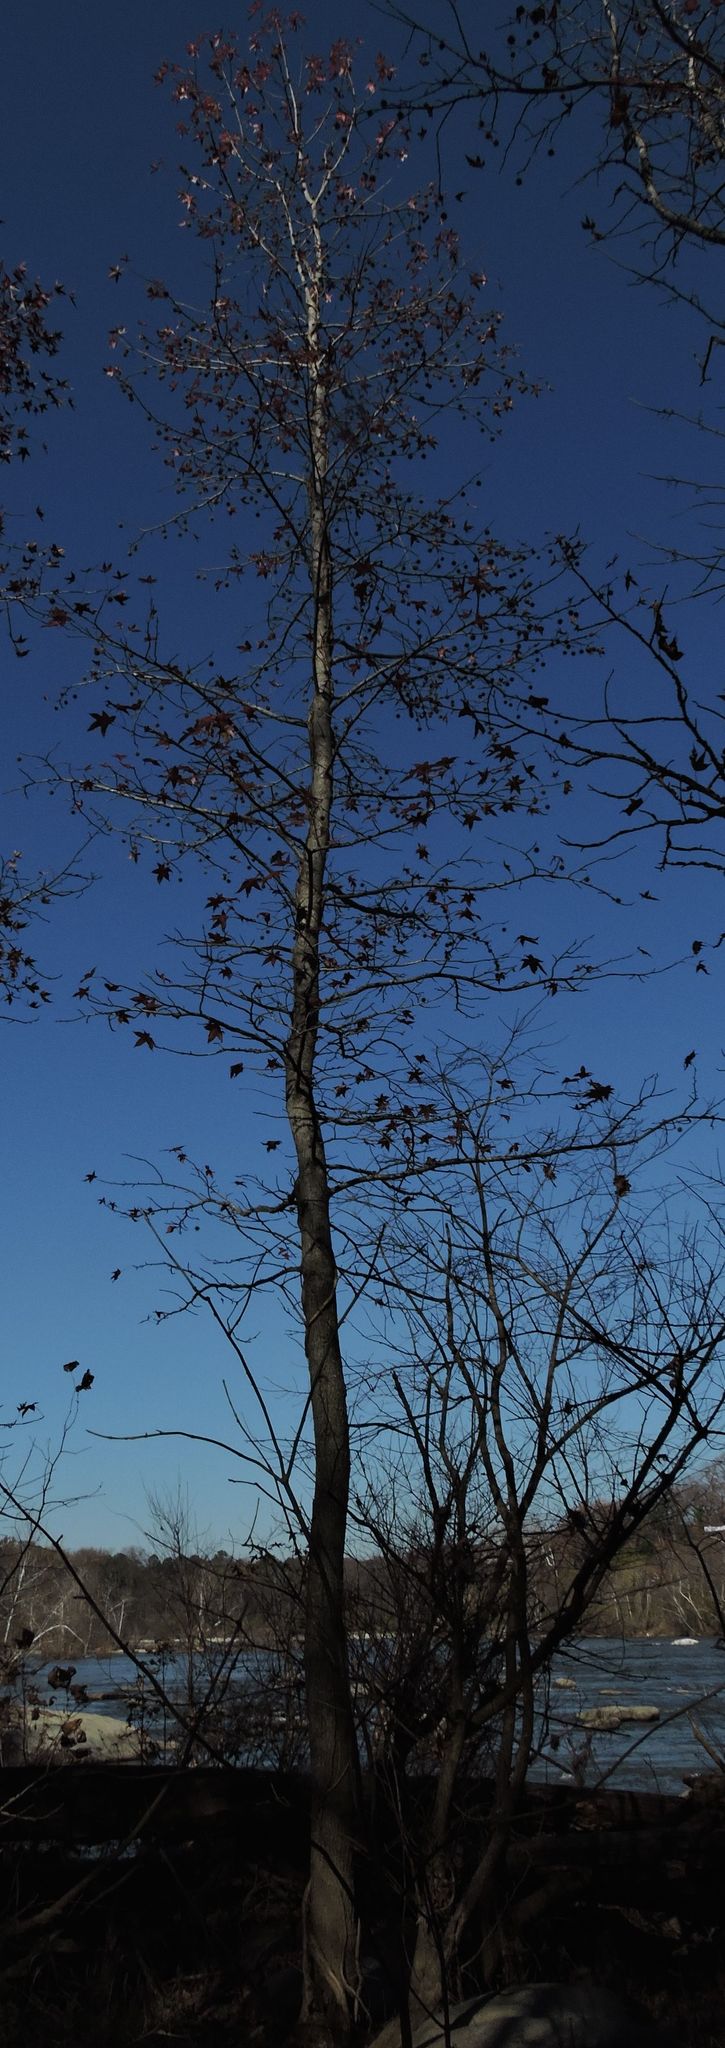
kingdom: Plantae
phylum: Tracheophyta
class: Magnoliopsida
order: Saxifragales
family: Altingiaceae
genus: Liquidambar
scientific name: Liquidambar styraciflua
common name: Sweet gum
